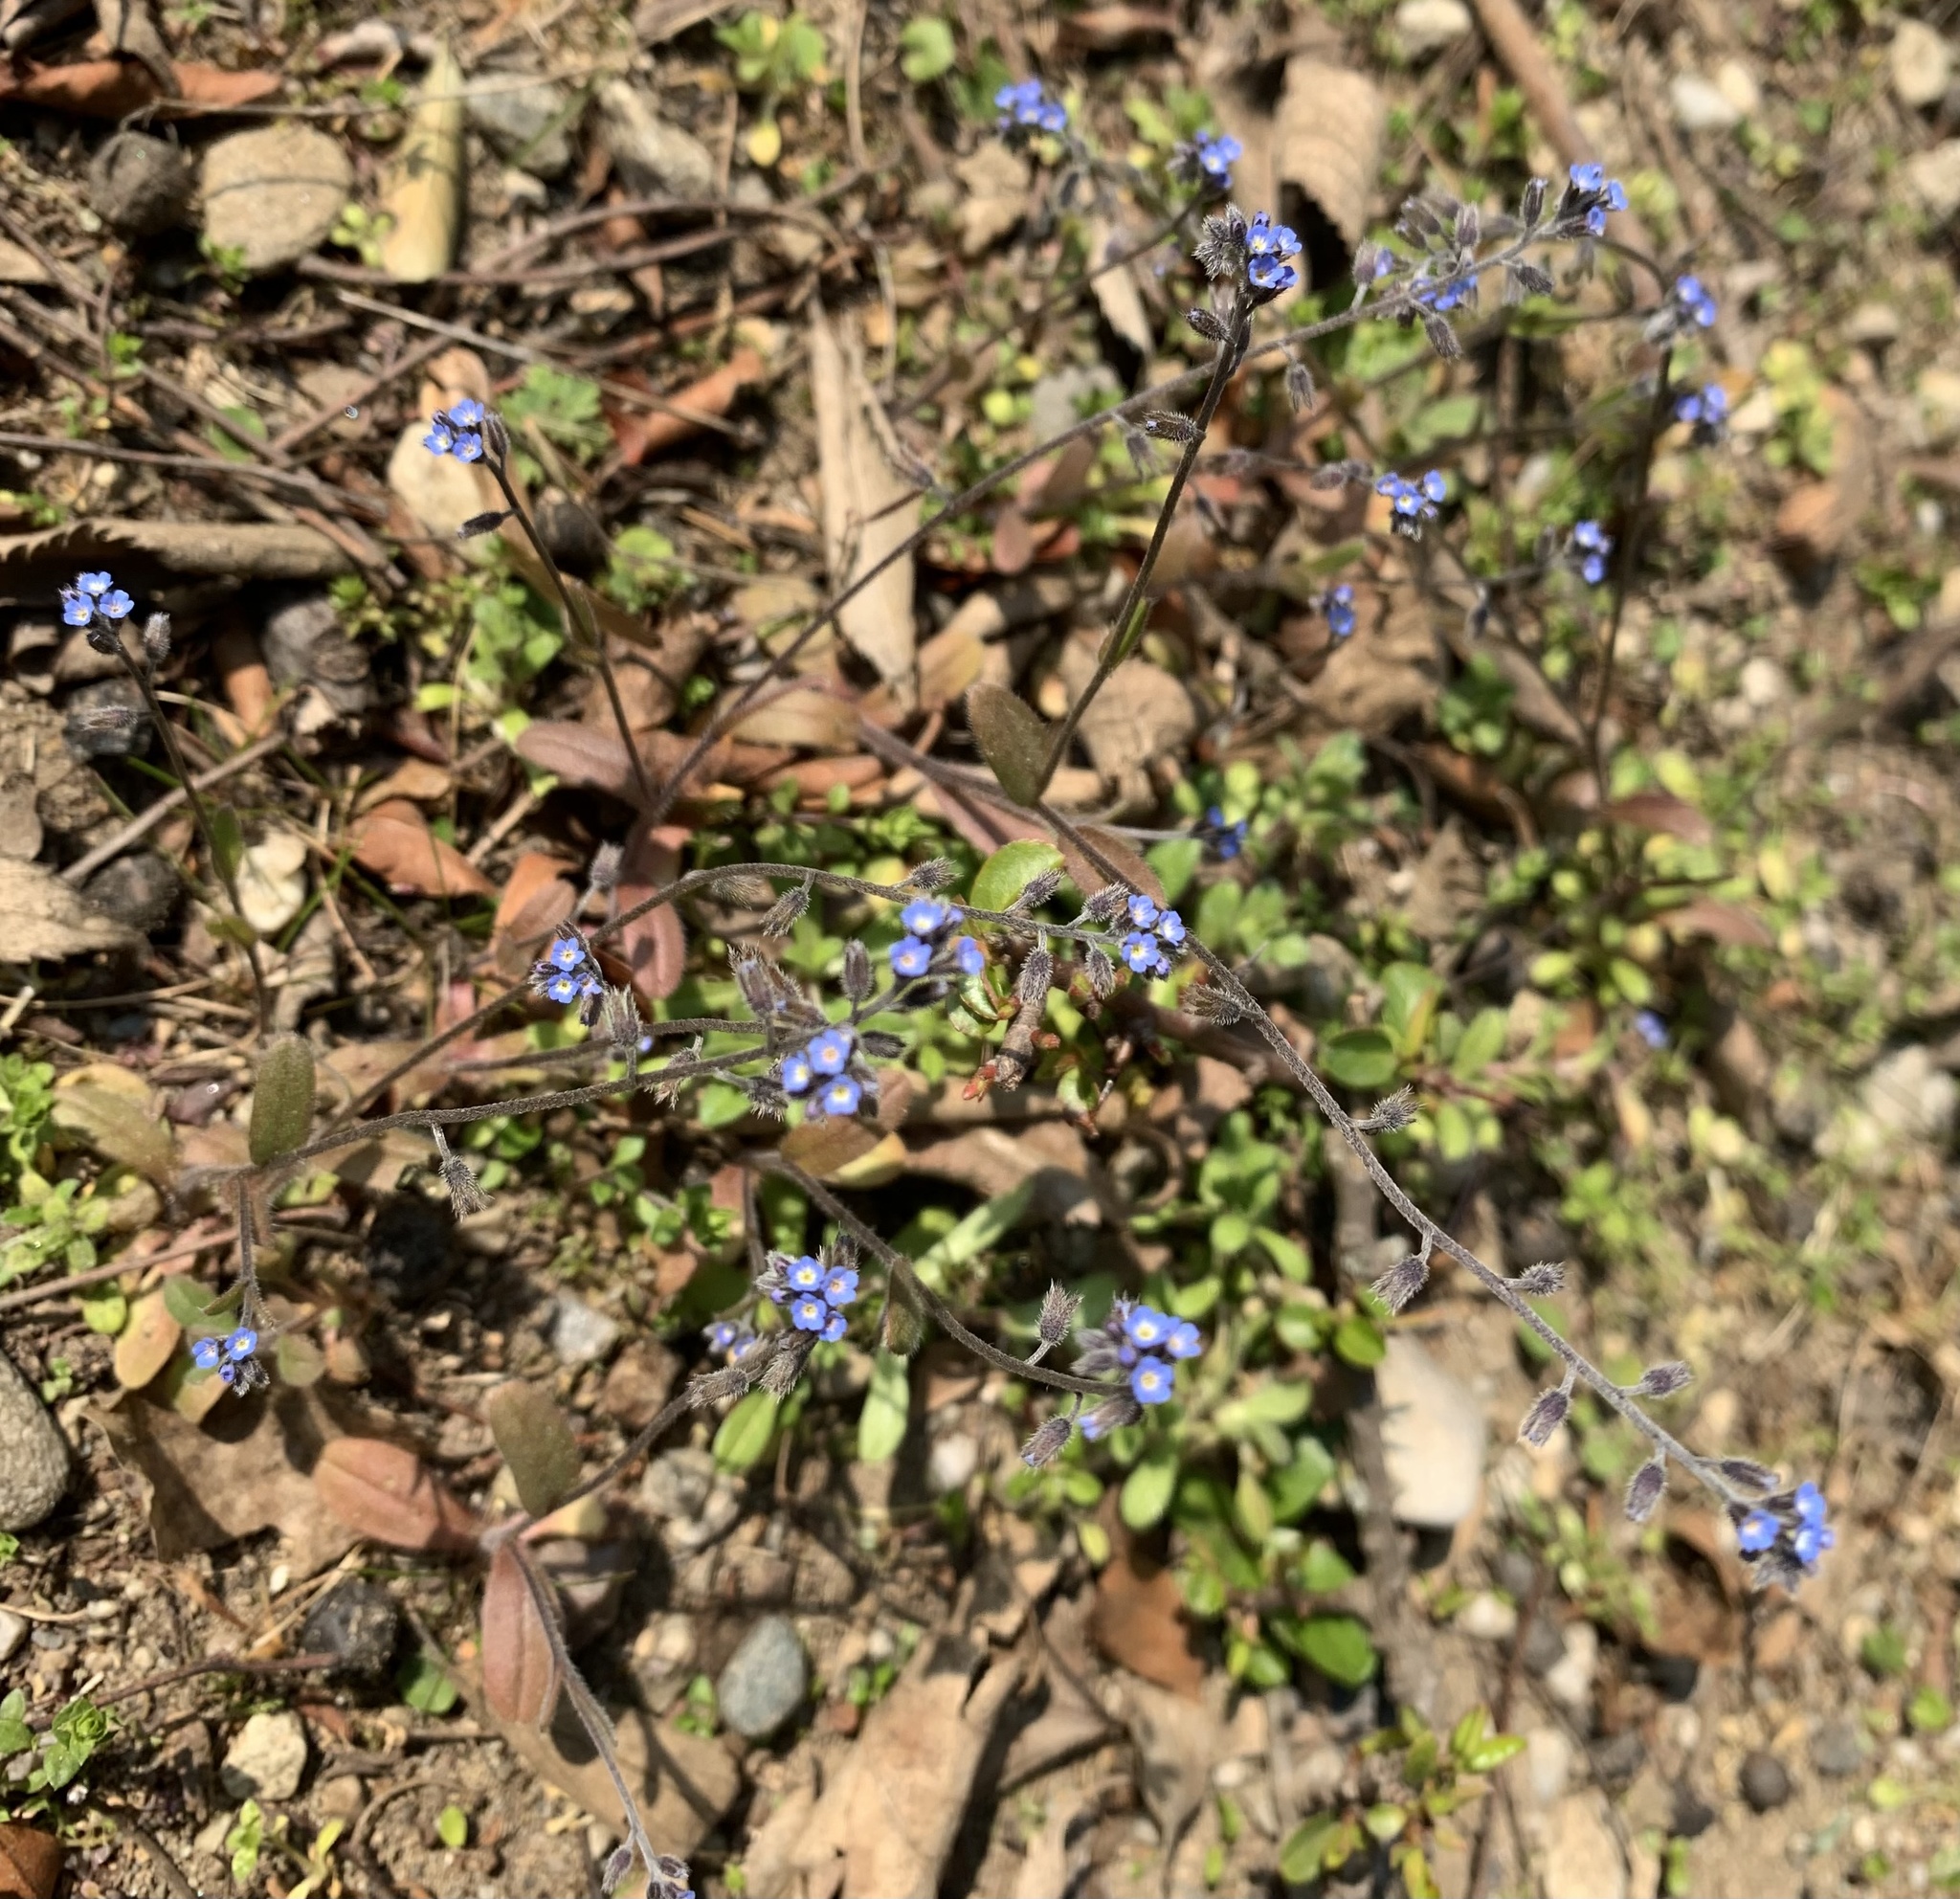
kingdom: Plantae
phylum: Tracheophyta
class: Magnoliopsida
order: Boraginales
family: Boraginaceae
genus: Myosotis
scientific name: Myosotis ramosissima
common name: Early forget-me-not
